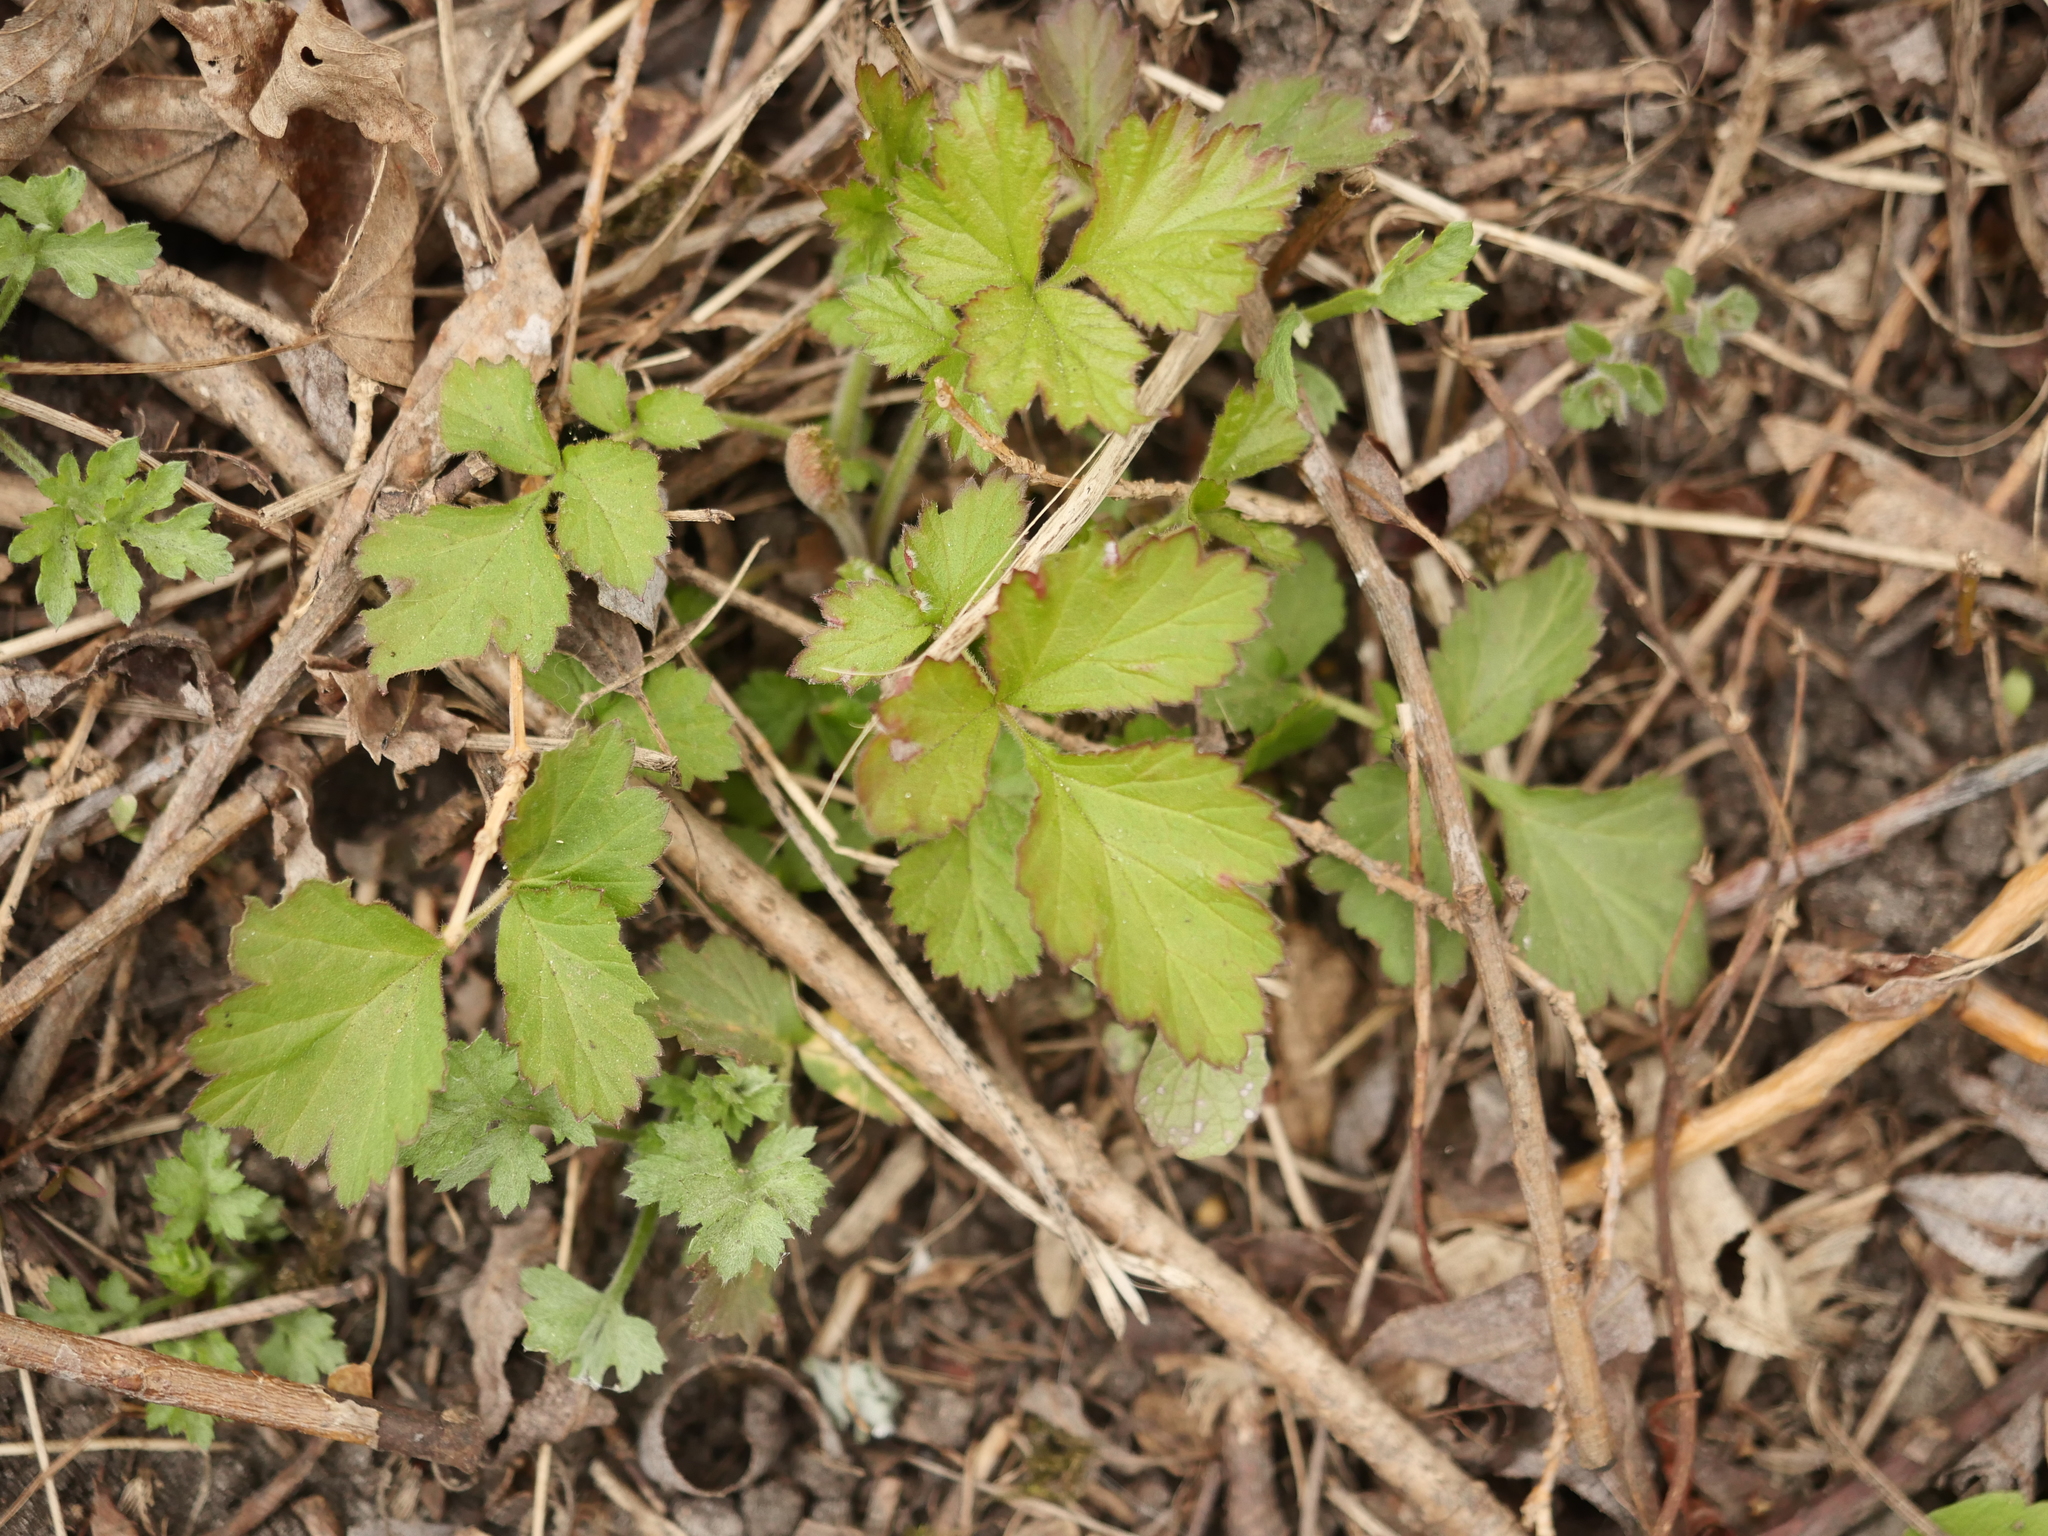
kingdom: Plantae
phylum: Tracheophyta
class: Magnoliopsida
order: Rosales
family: Rosaceae
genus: Geum
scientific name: Geum urbanum
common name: Wood avens
